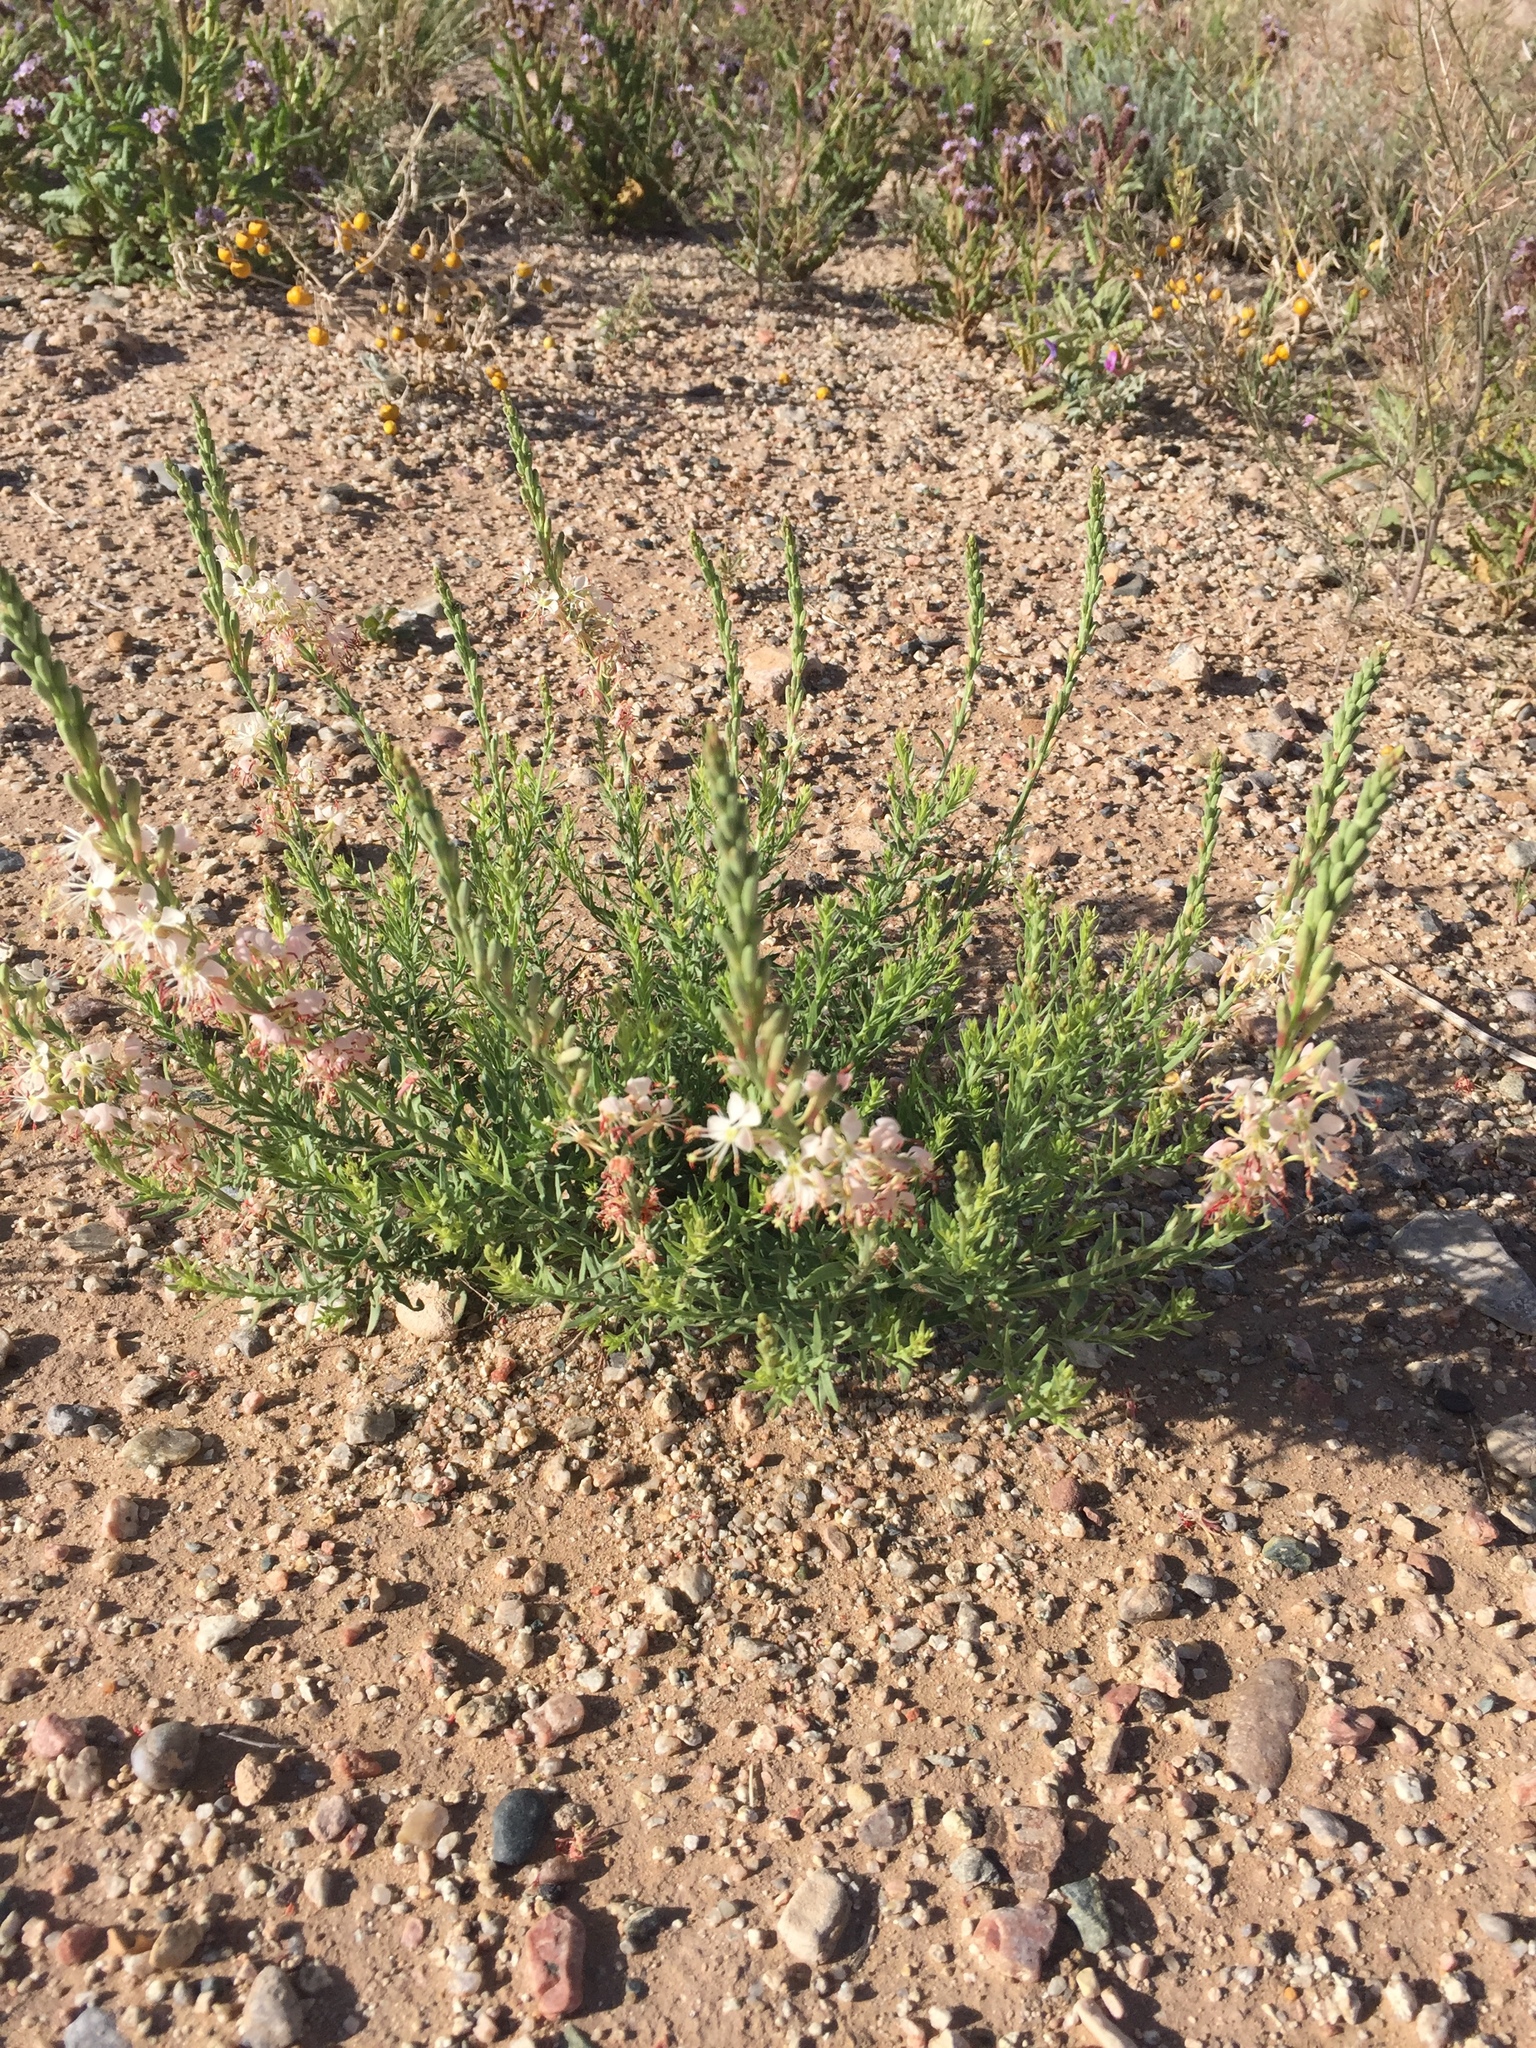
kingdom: Plantae
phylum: Tracheophyta
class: Magnoliopsida
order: Myrtales
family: Onagraceae
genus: Oenothera
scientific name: Oenothera suffrutescens
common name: Scarlet beeblossom
